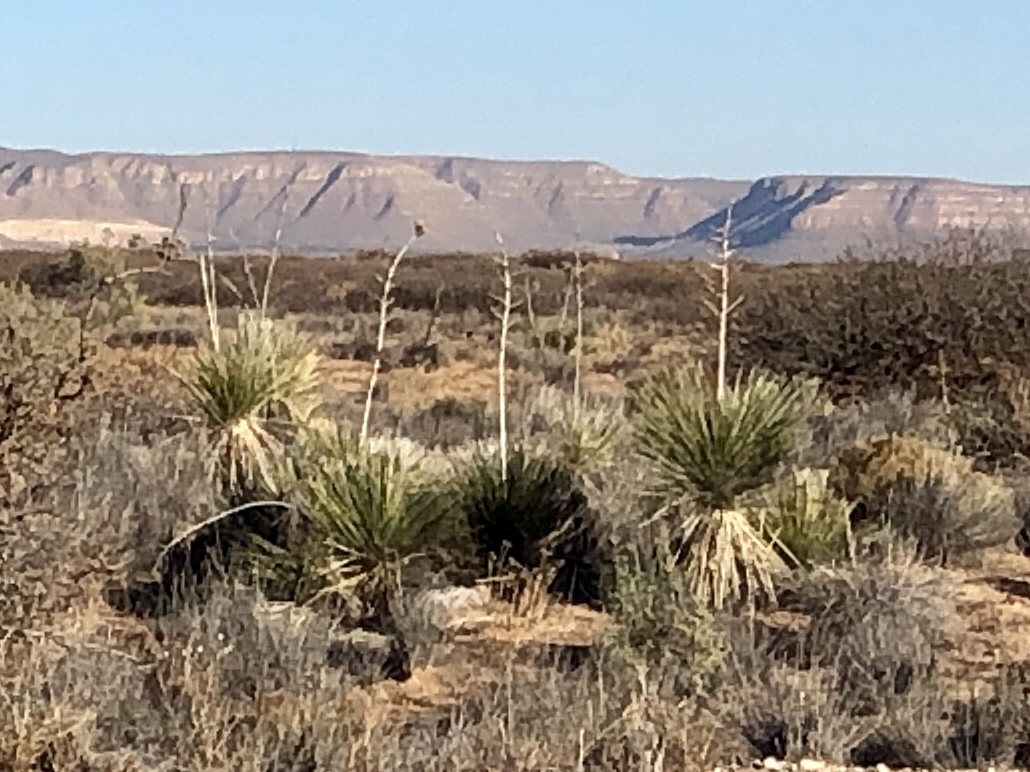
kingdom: Plantae
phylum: Tracheophyta
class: Liliopsida
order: Asparagales
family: Asparagaceae
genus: Yucca
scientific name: Yucca elata
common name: Palmella
